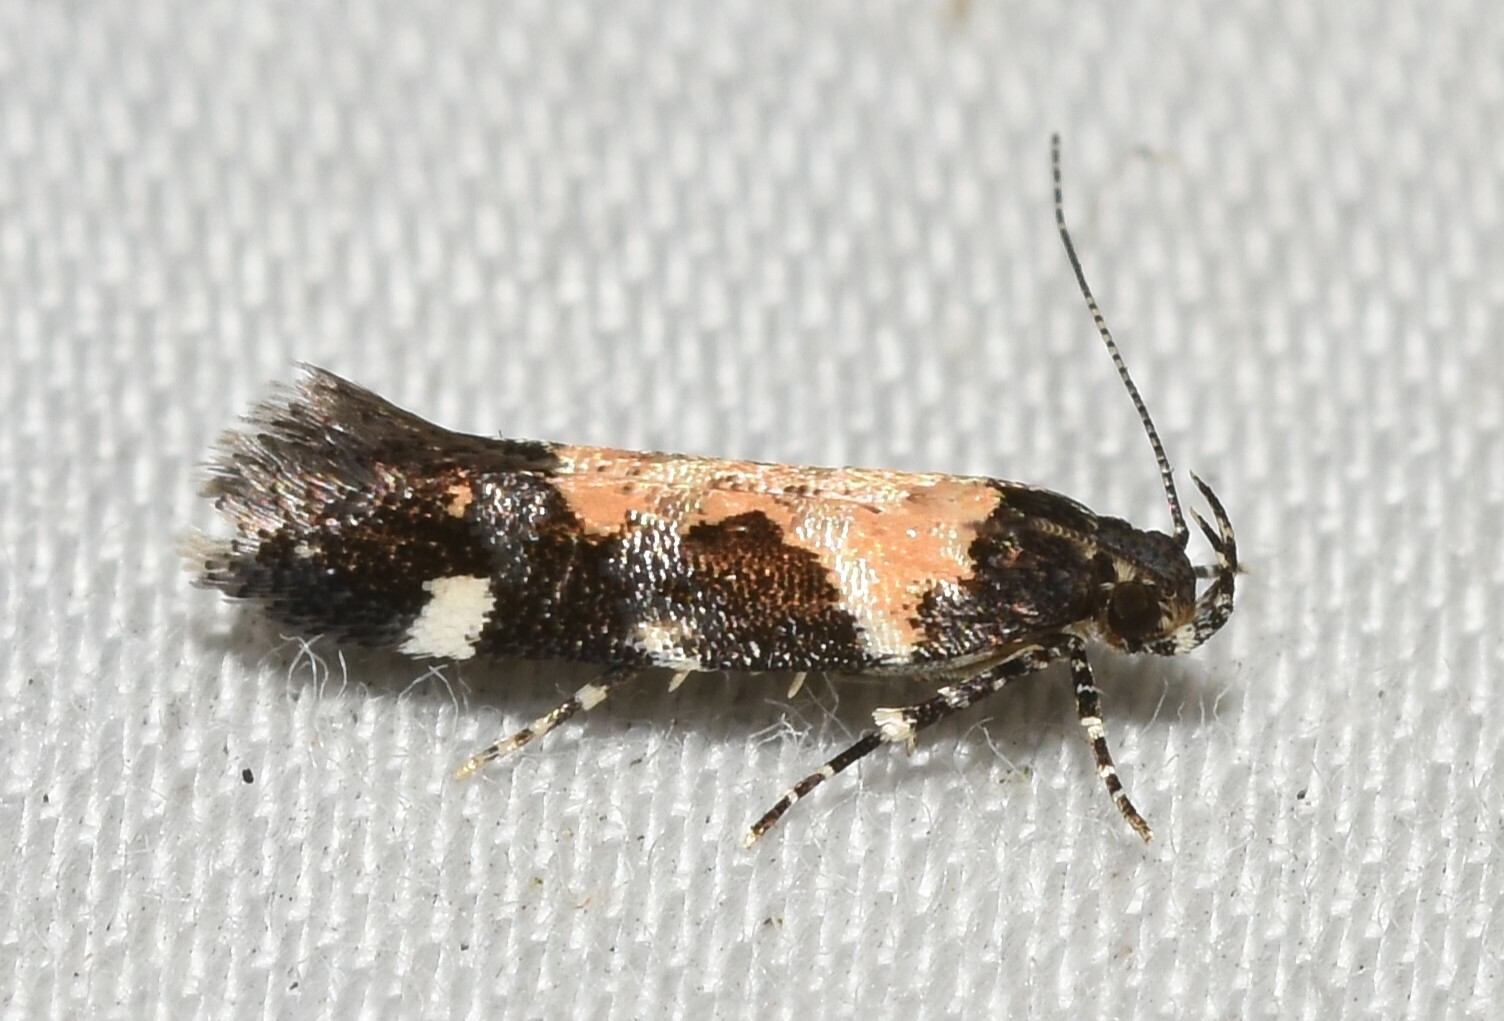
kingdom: Animalia
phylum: Arthropoda
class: Insecta
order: Lepidoptera
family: Gelechiidae
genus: Stegasta
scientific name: Stegasta bosqueella
